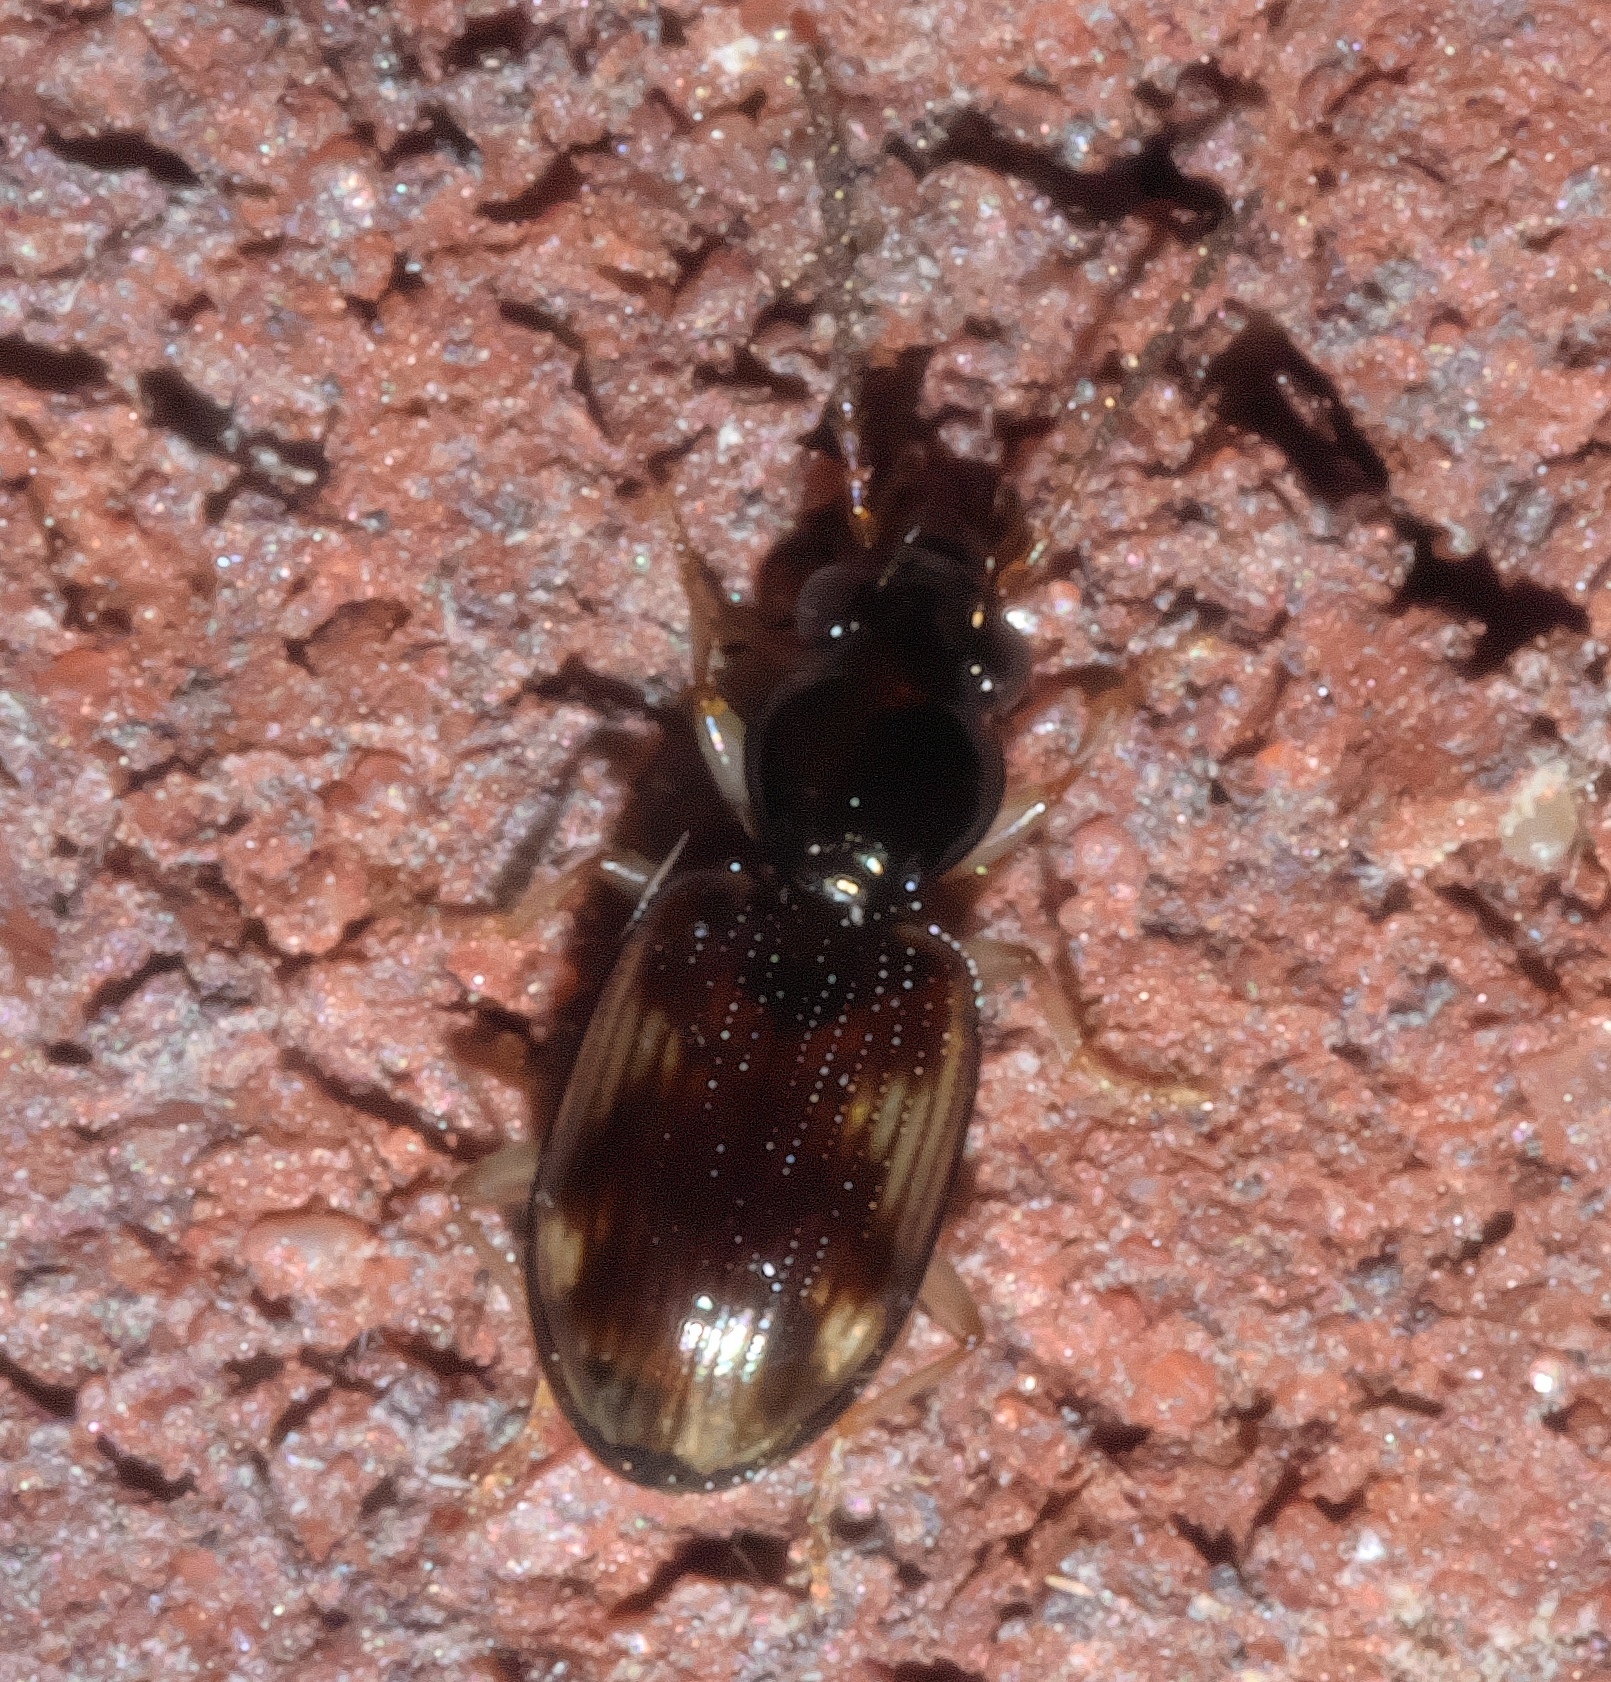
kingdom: Animalia
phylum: Arthropoda
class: Insecta
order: Coleoptera
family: Carabidae
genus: Bembidion
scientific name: Bembidion affine
